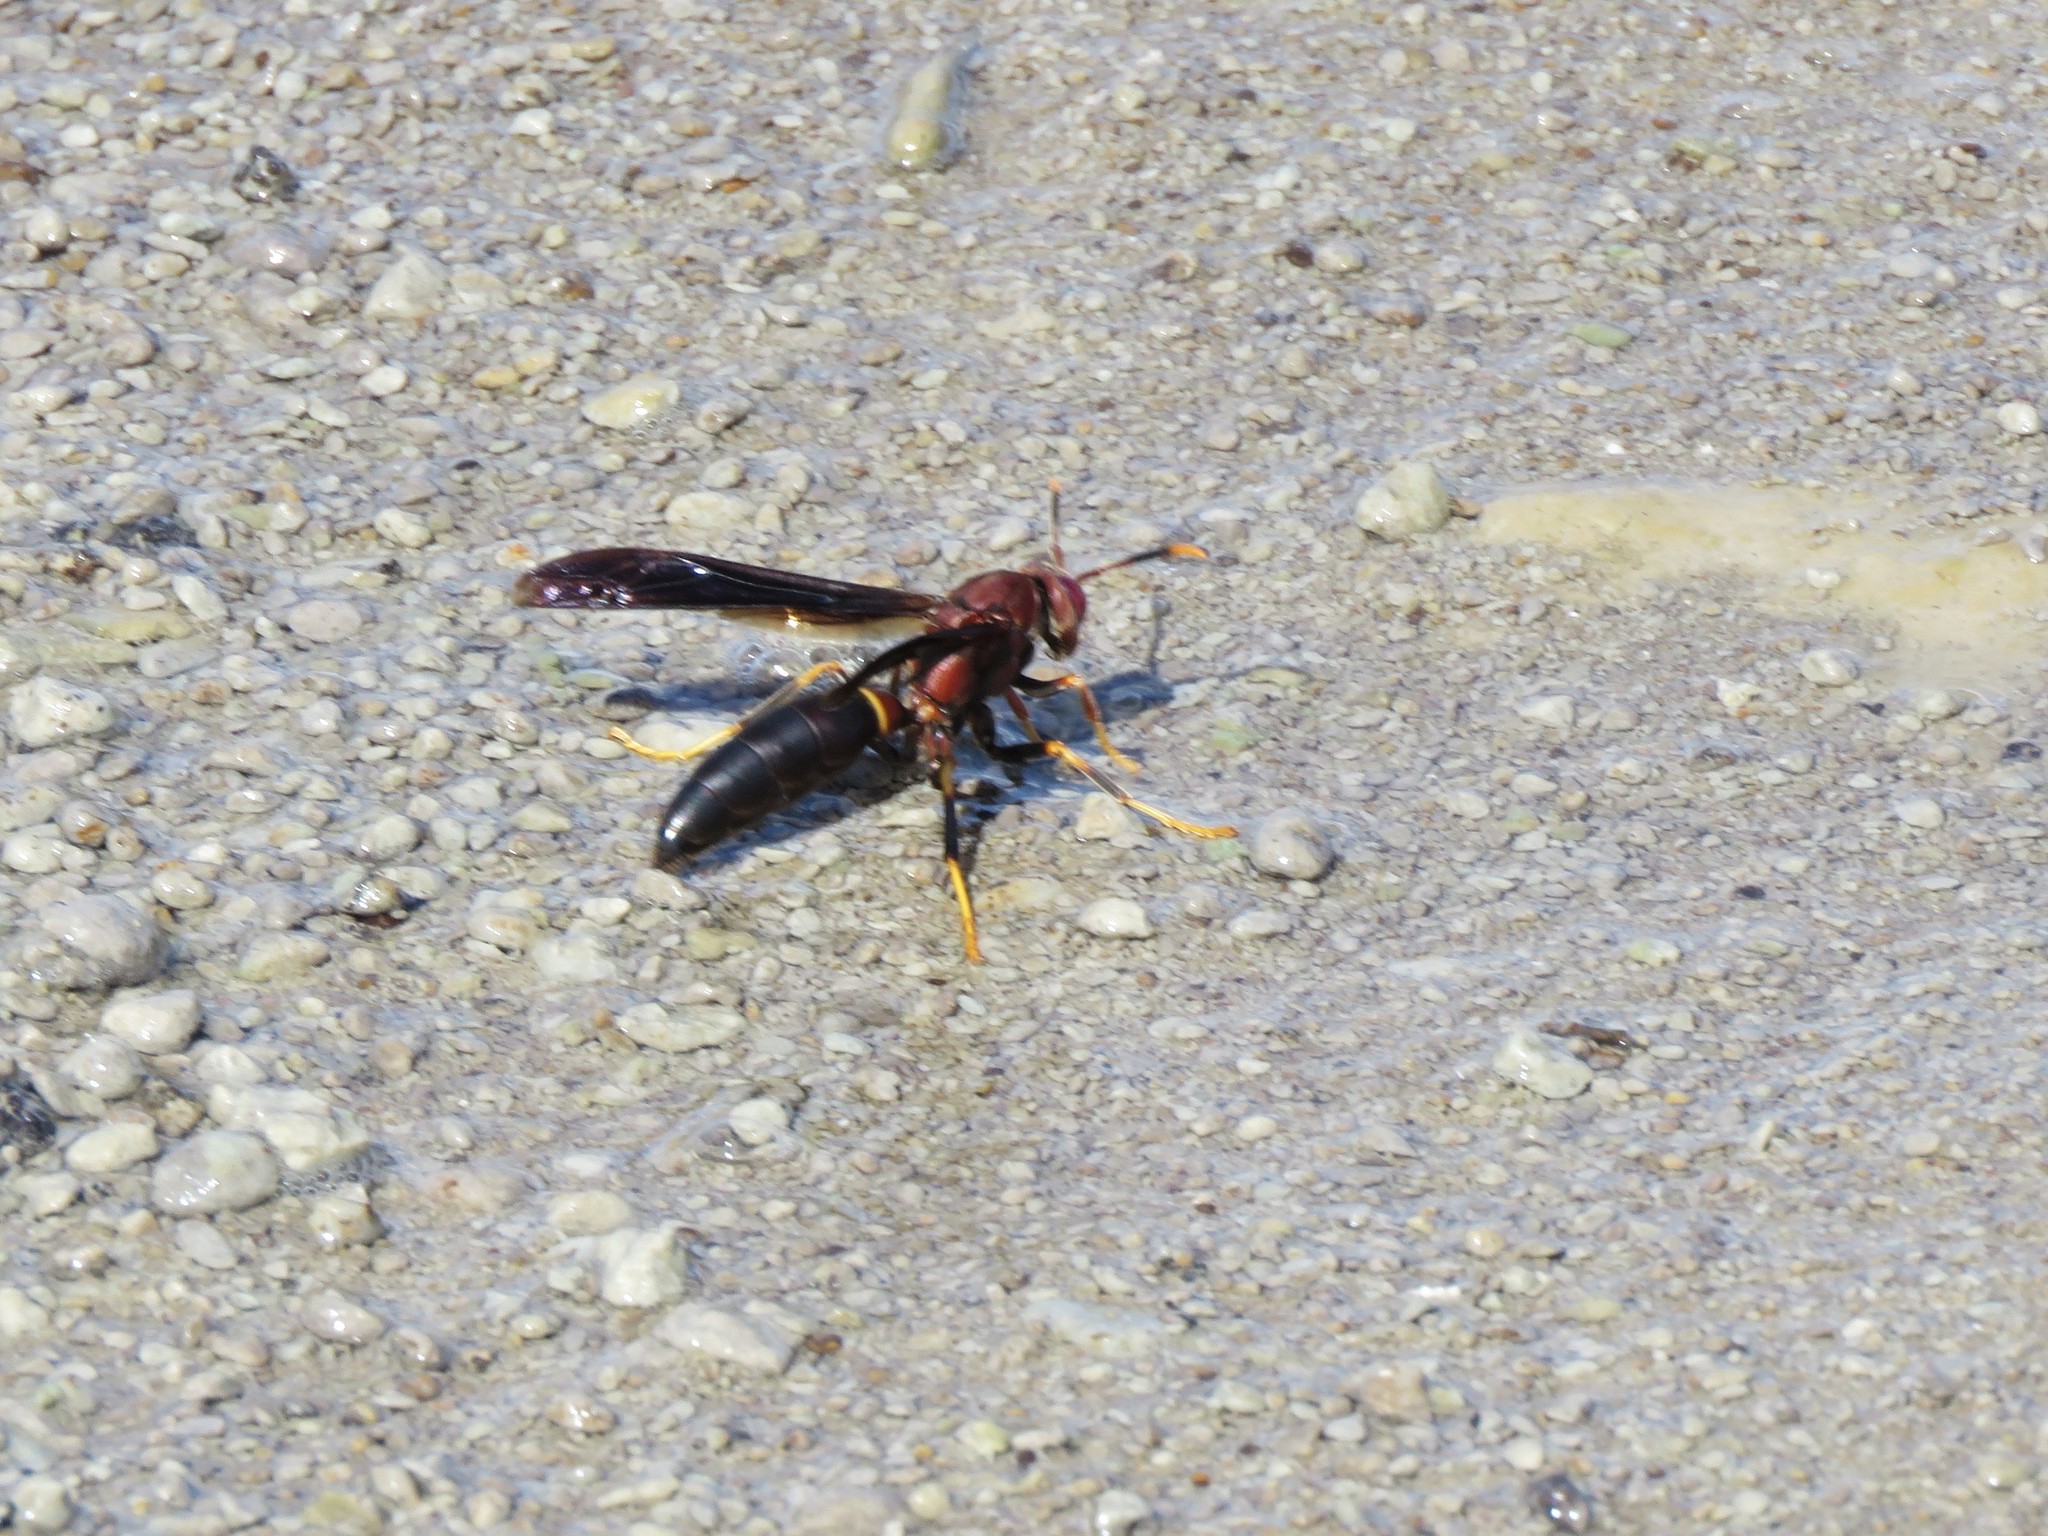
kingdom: Animalia
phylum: Arthropoda
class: Insecta
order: Hymenoptera
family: Eumenidae
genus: Polistes
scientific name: Polistes annularis
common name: Ringed paper wasp
